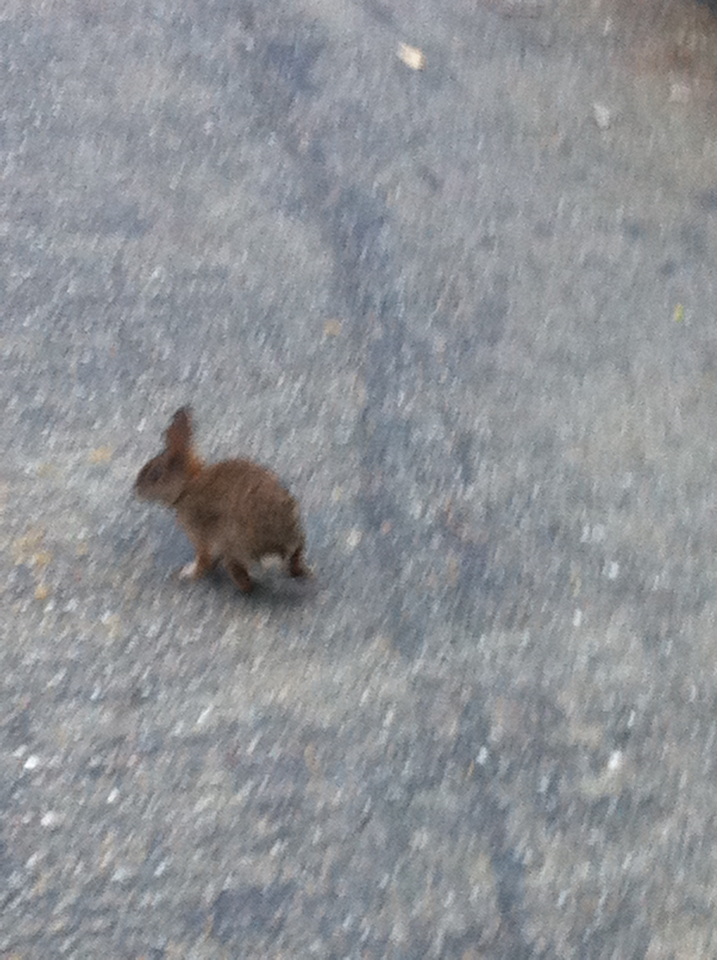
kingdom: Animalia
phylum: Chordata
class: Mammalia
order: Lagomorpha
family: Leporidae
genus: Sylvilagus
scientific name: Sylvilagus bachmani
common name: Brush rabbit
